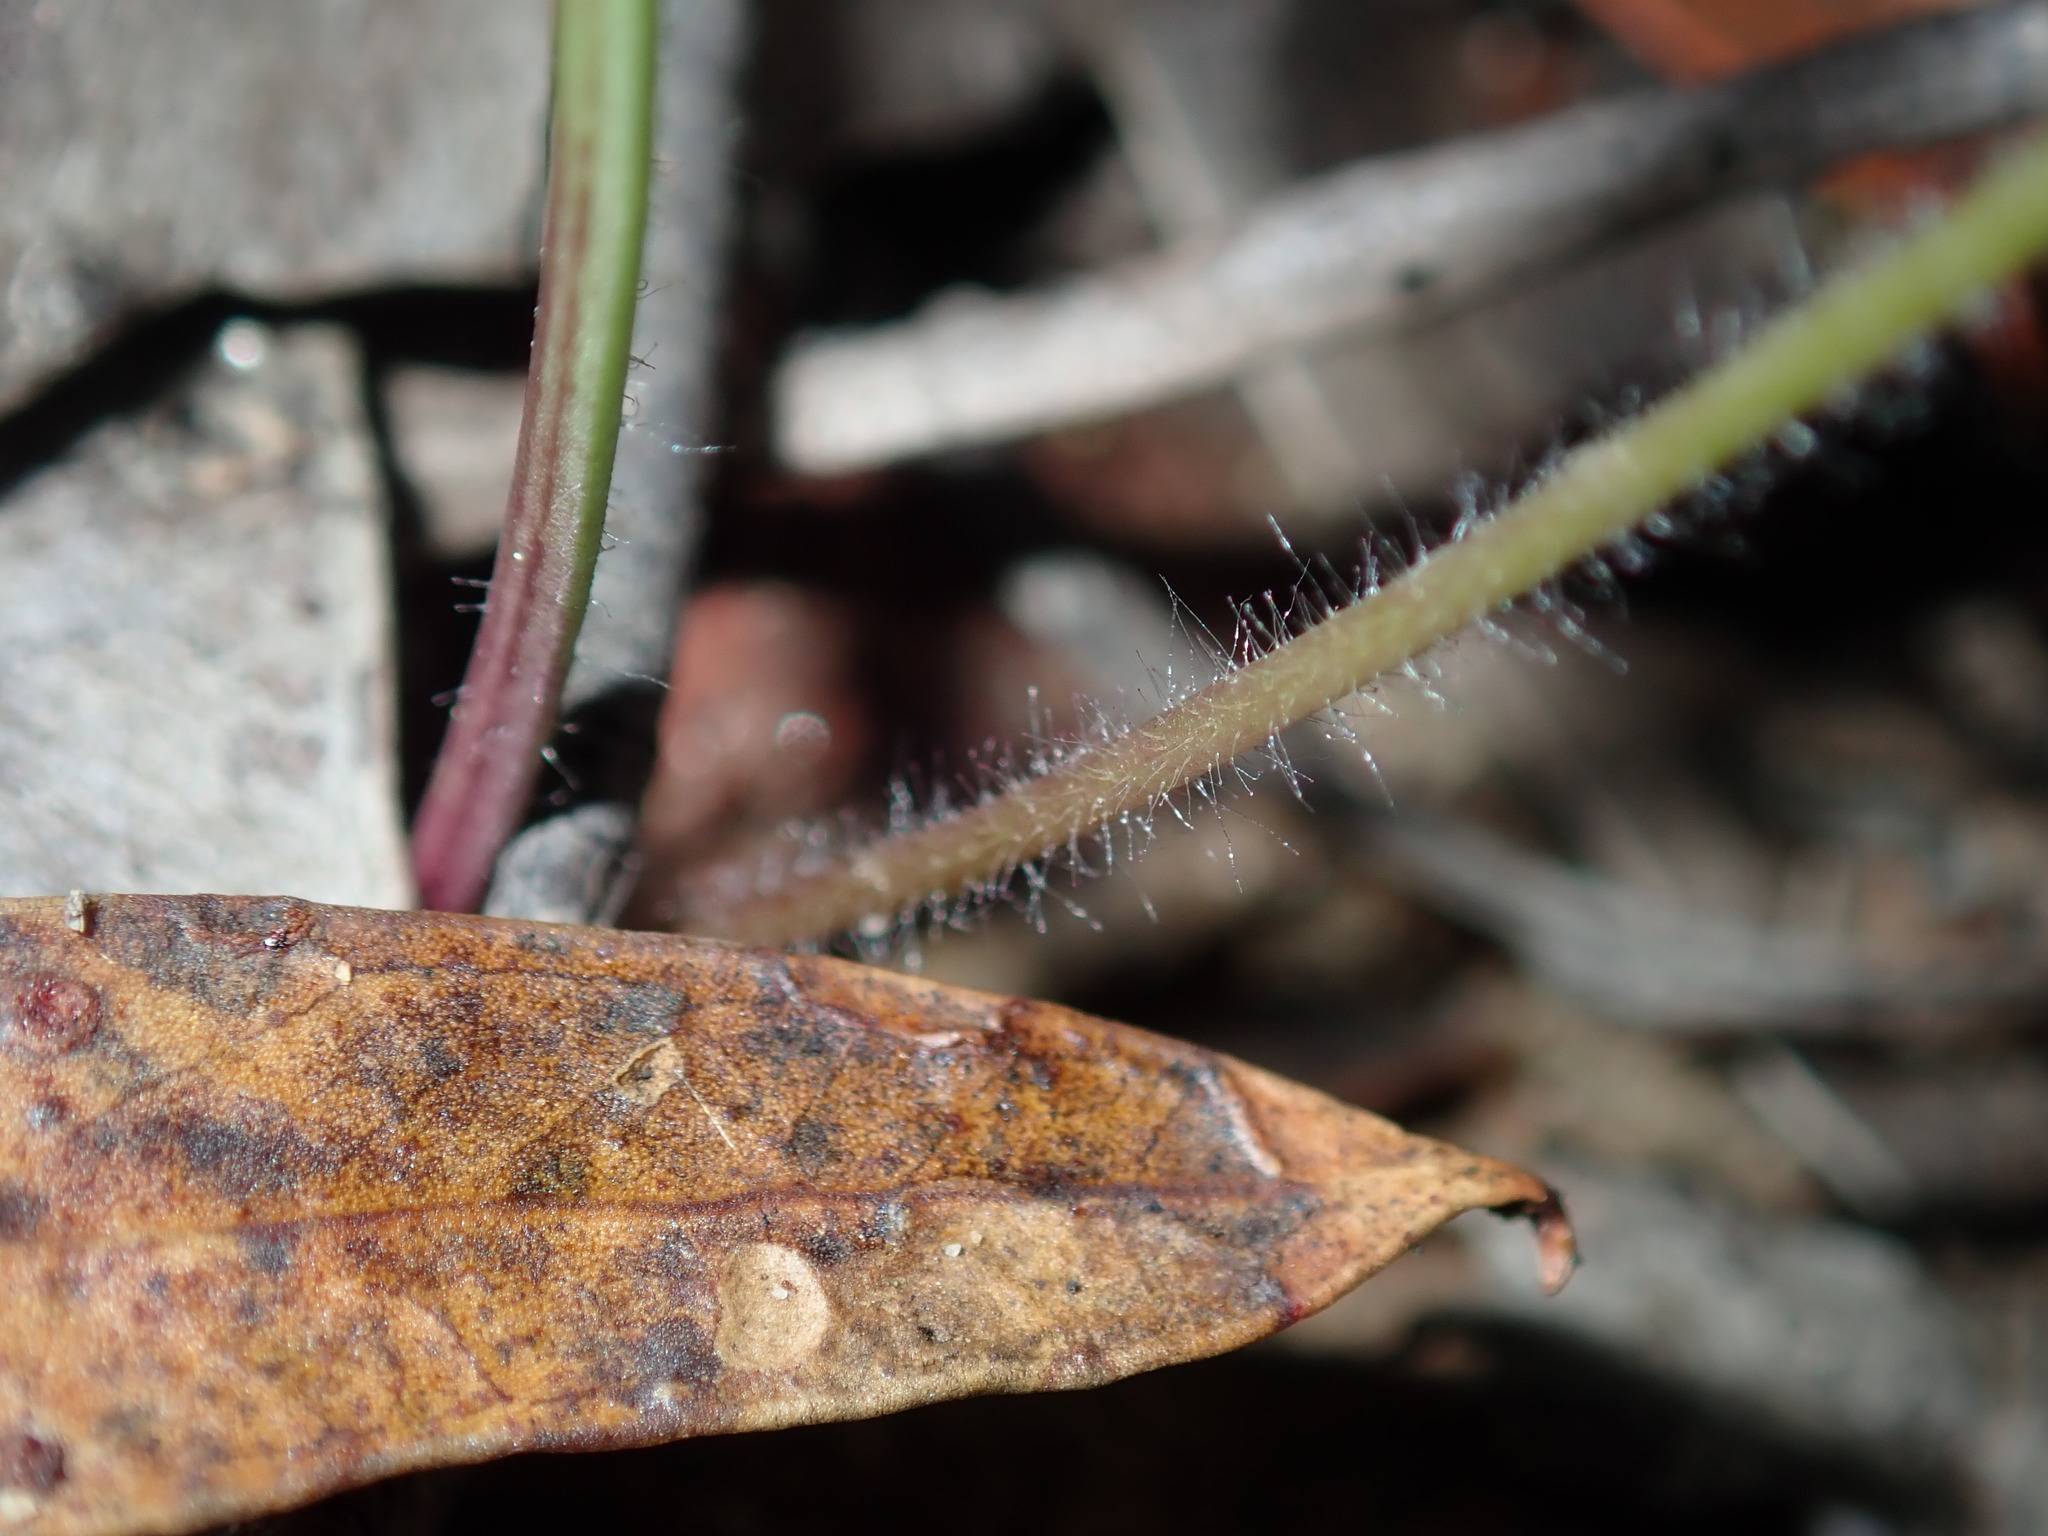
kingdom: Plantae
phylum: Tracheophyta
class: Liliopsida
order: Asparagales
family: Orchidaceae
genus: Caladenia
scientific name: Caladenia picta
